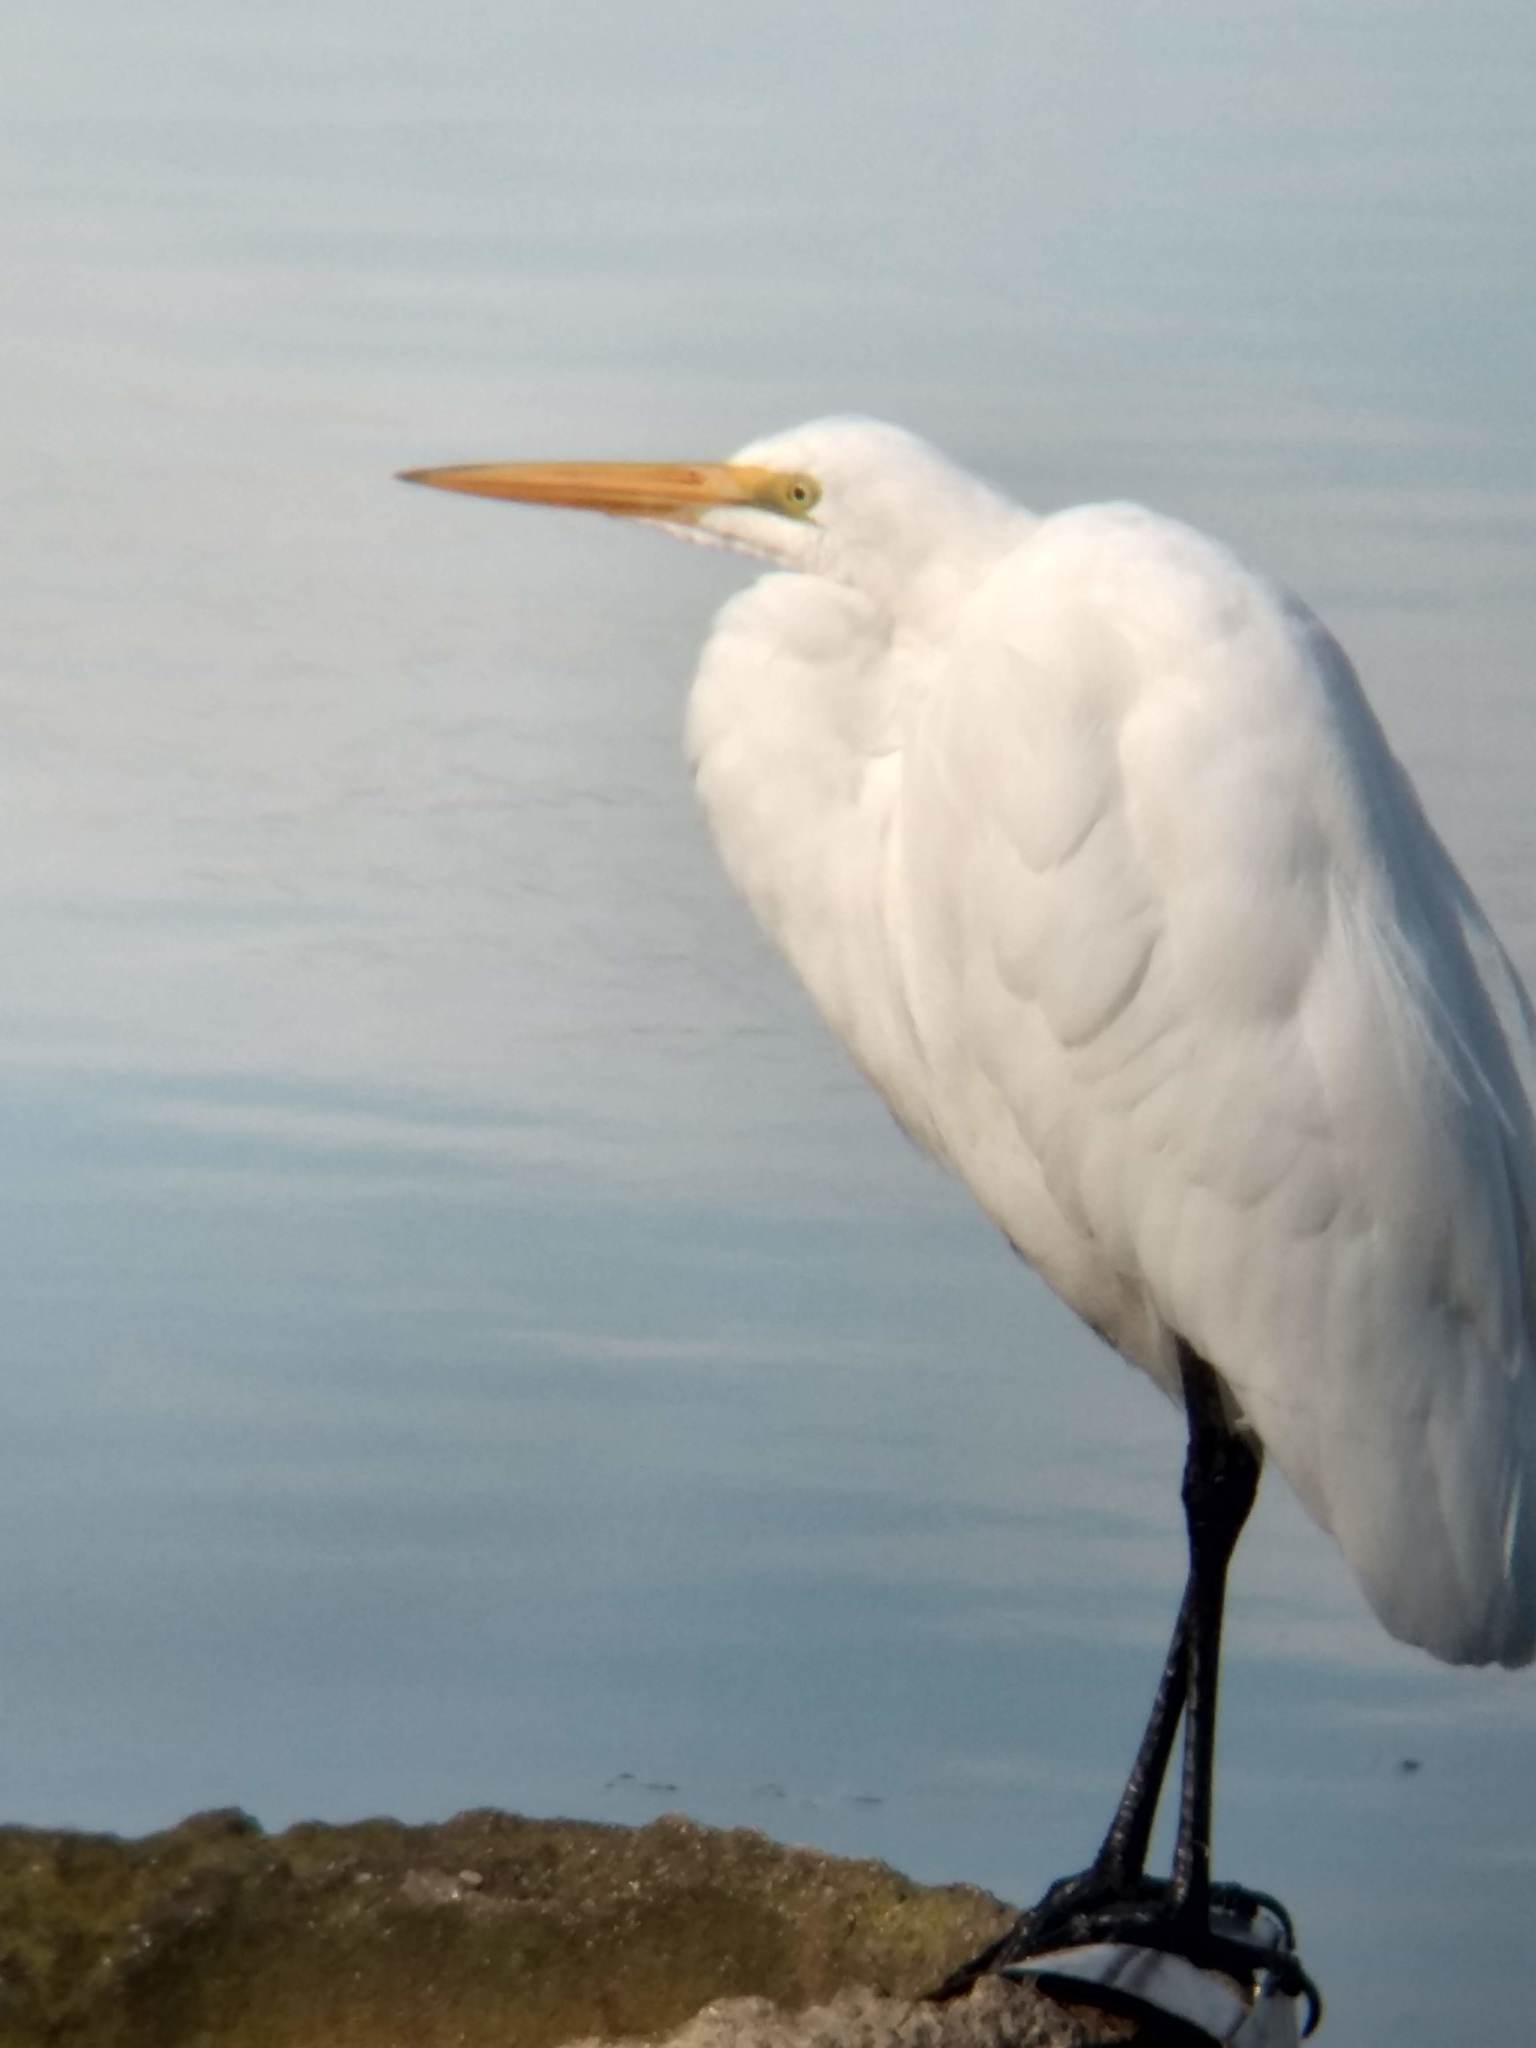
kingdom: Animalia
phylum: Chordata
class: Aves
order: Pelecaniformes
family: Ardeidae
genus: Ardea
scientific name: Ardea alba
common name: Great egret
